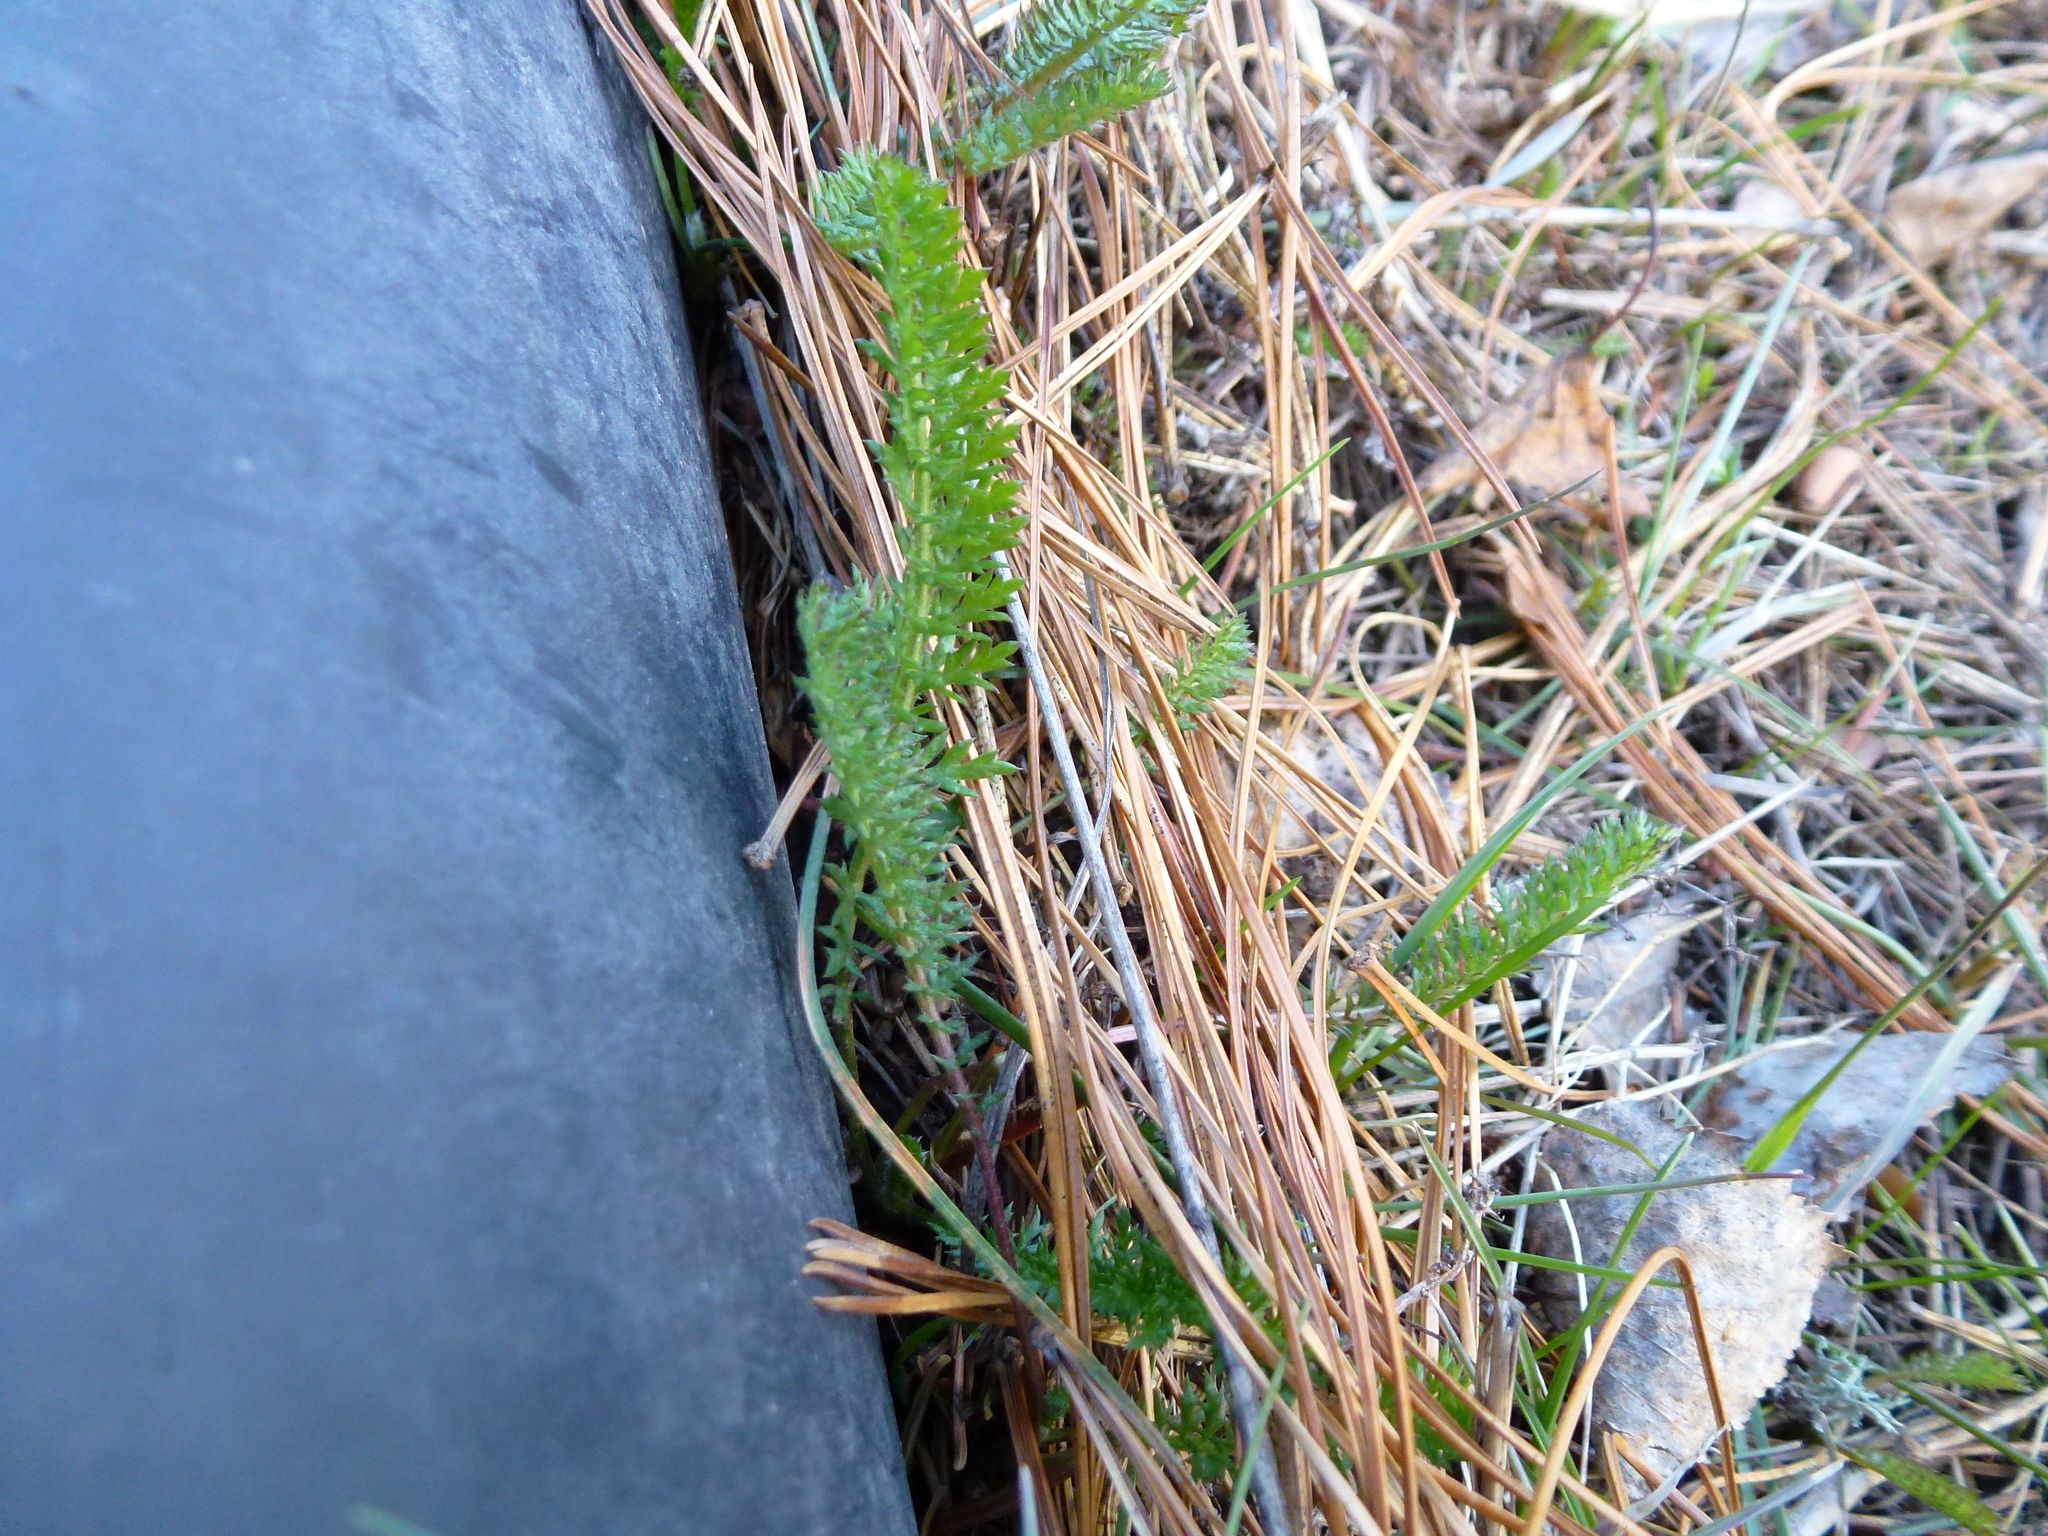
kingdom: Plantae
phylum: Tracheophyta
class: Magnoliopsida
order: Asterales
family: Asteraceae
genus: Achillea
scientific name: Achillea millefolium
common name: Yarrow
